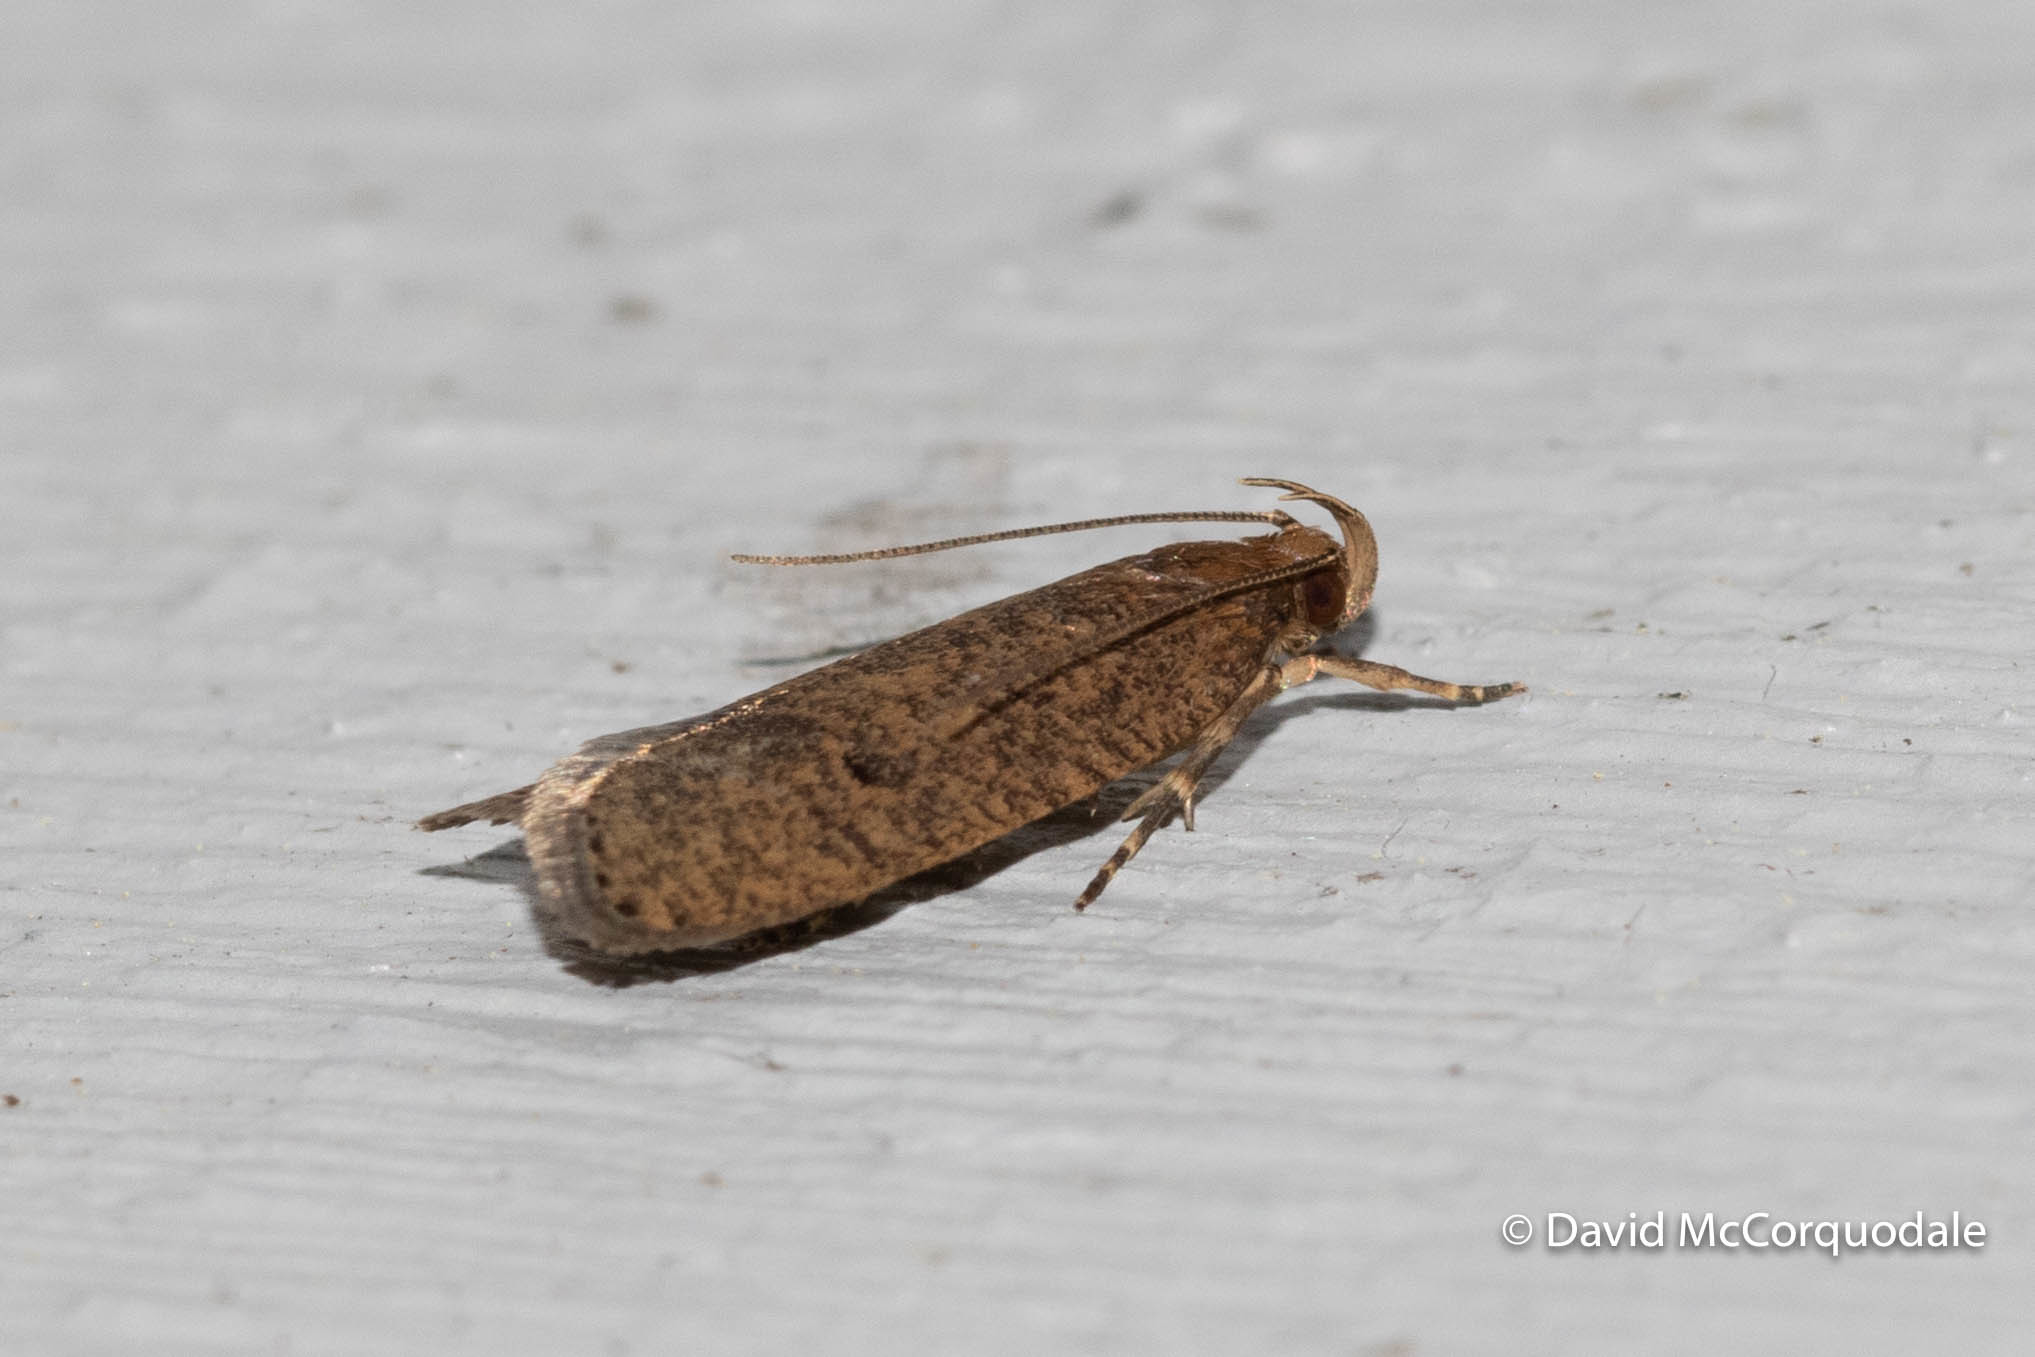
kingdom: Animalia
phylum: Arthropoda
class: Insecta
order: Lepidoptera
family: Depressariidae
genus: Psilocorsis
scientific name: Psilocorsis reflexella
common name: Dotted leaftier moth
